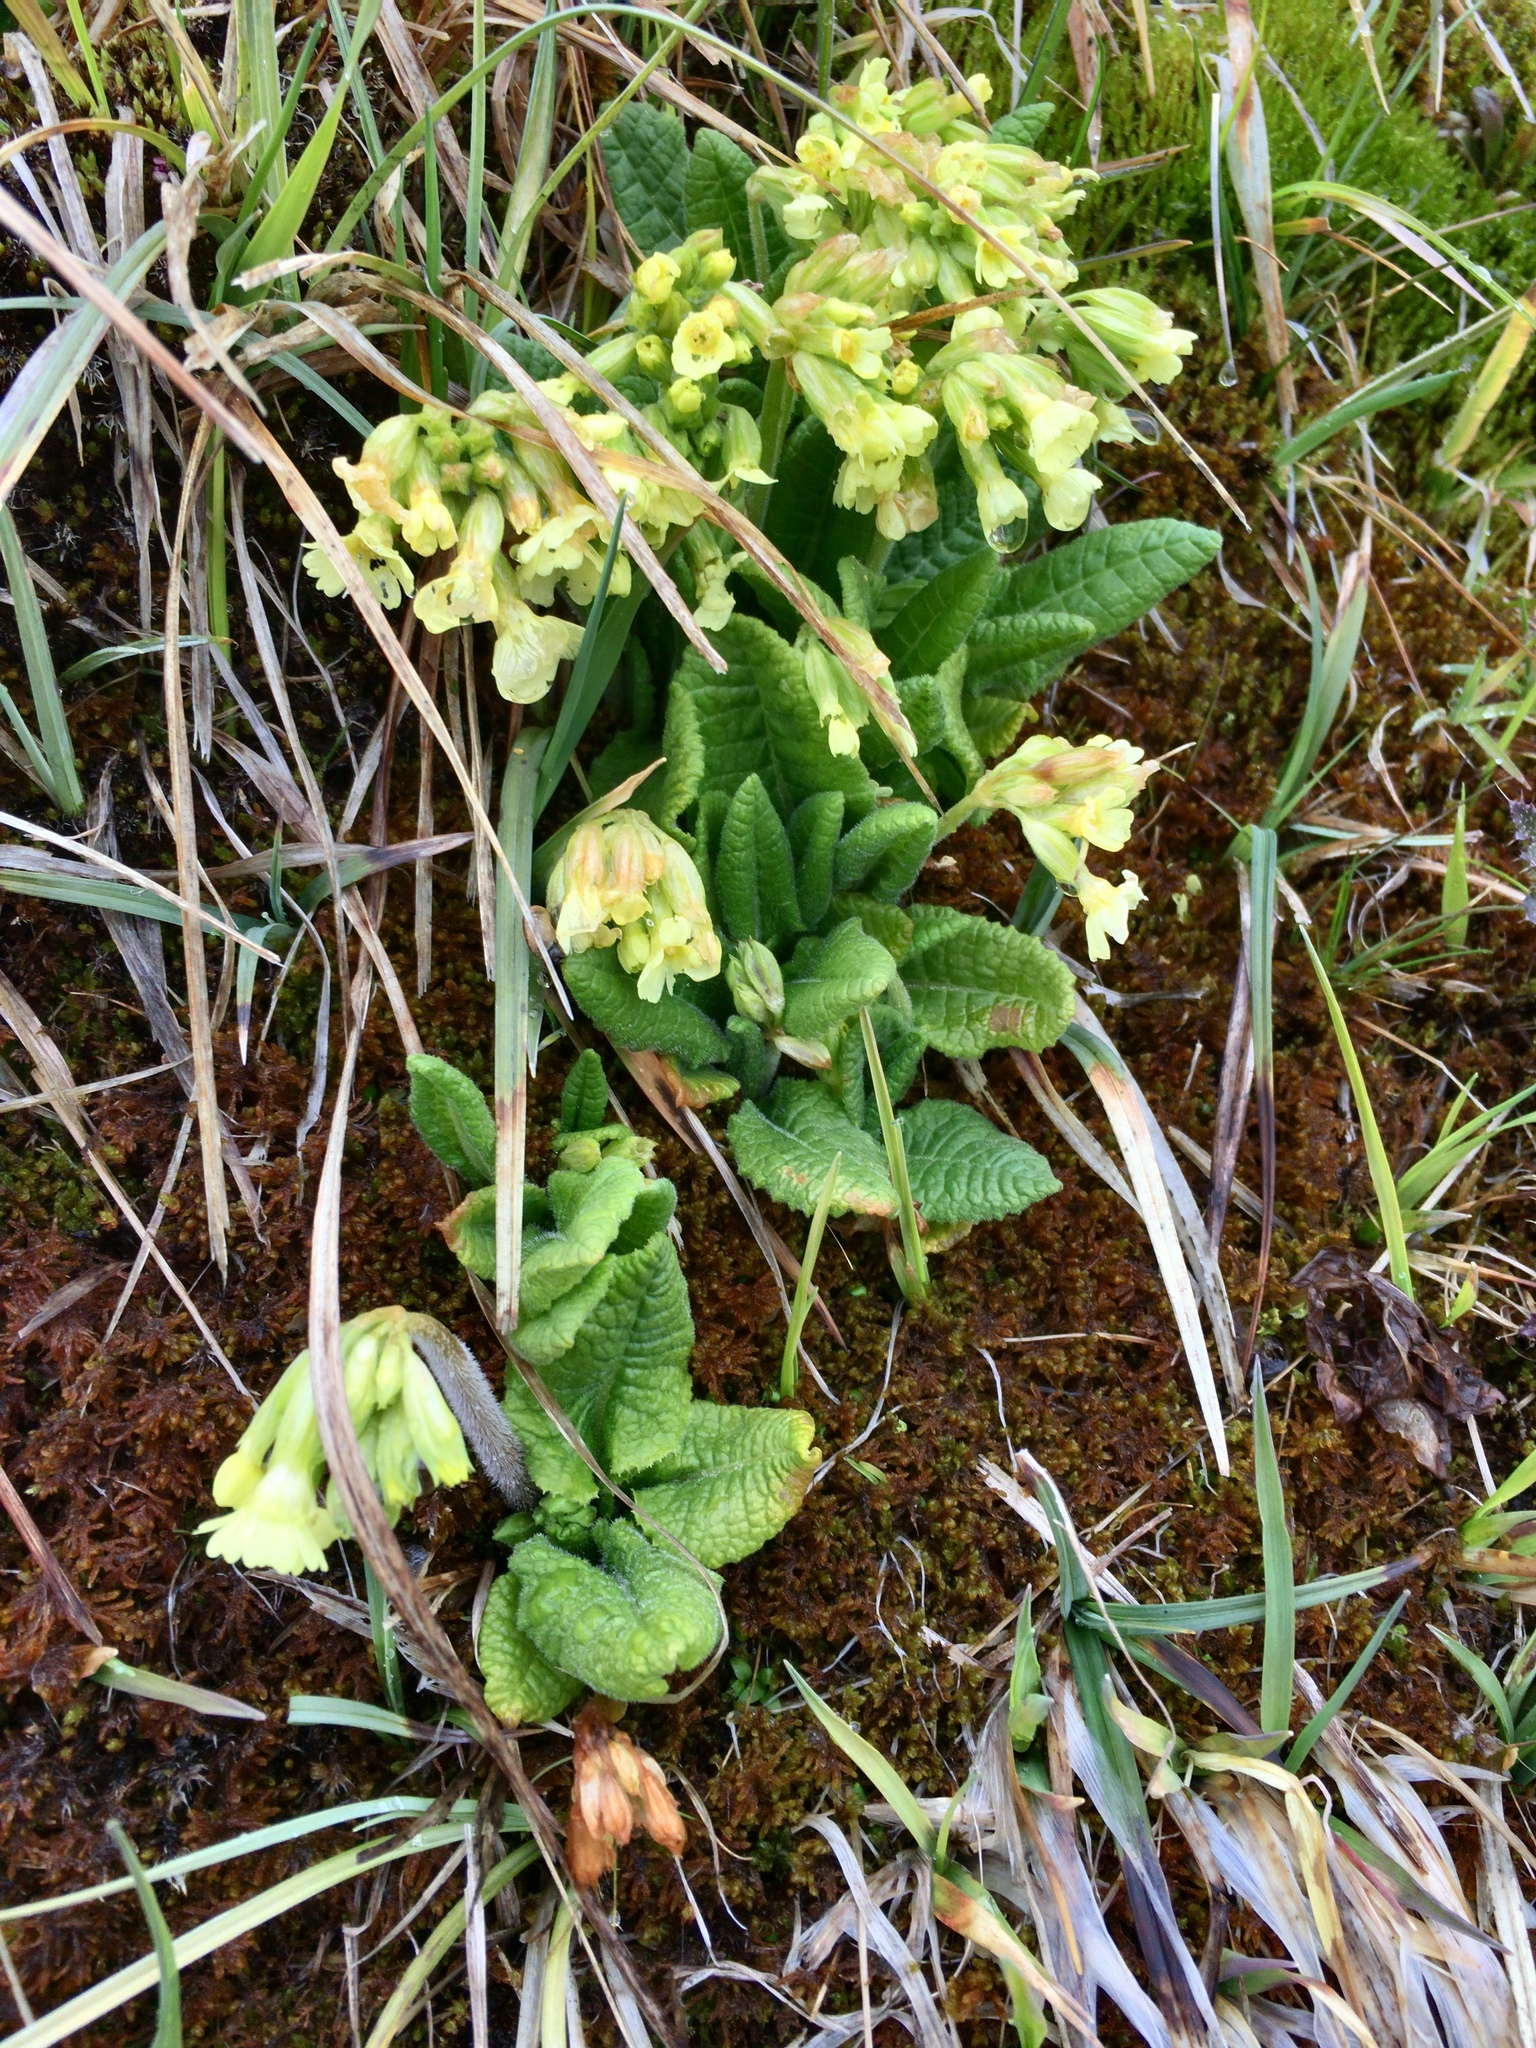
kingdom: Plantae
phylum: Tracheophyta
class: Magnoliopsida
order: Ericales
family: Primulaceae
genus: Primula
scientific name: Primula elatior
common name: Oxlip
